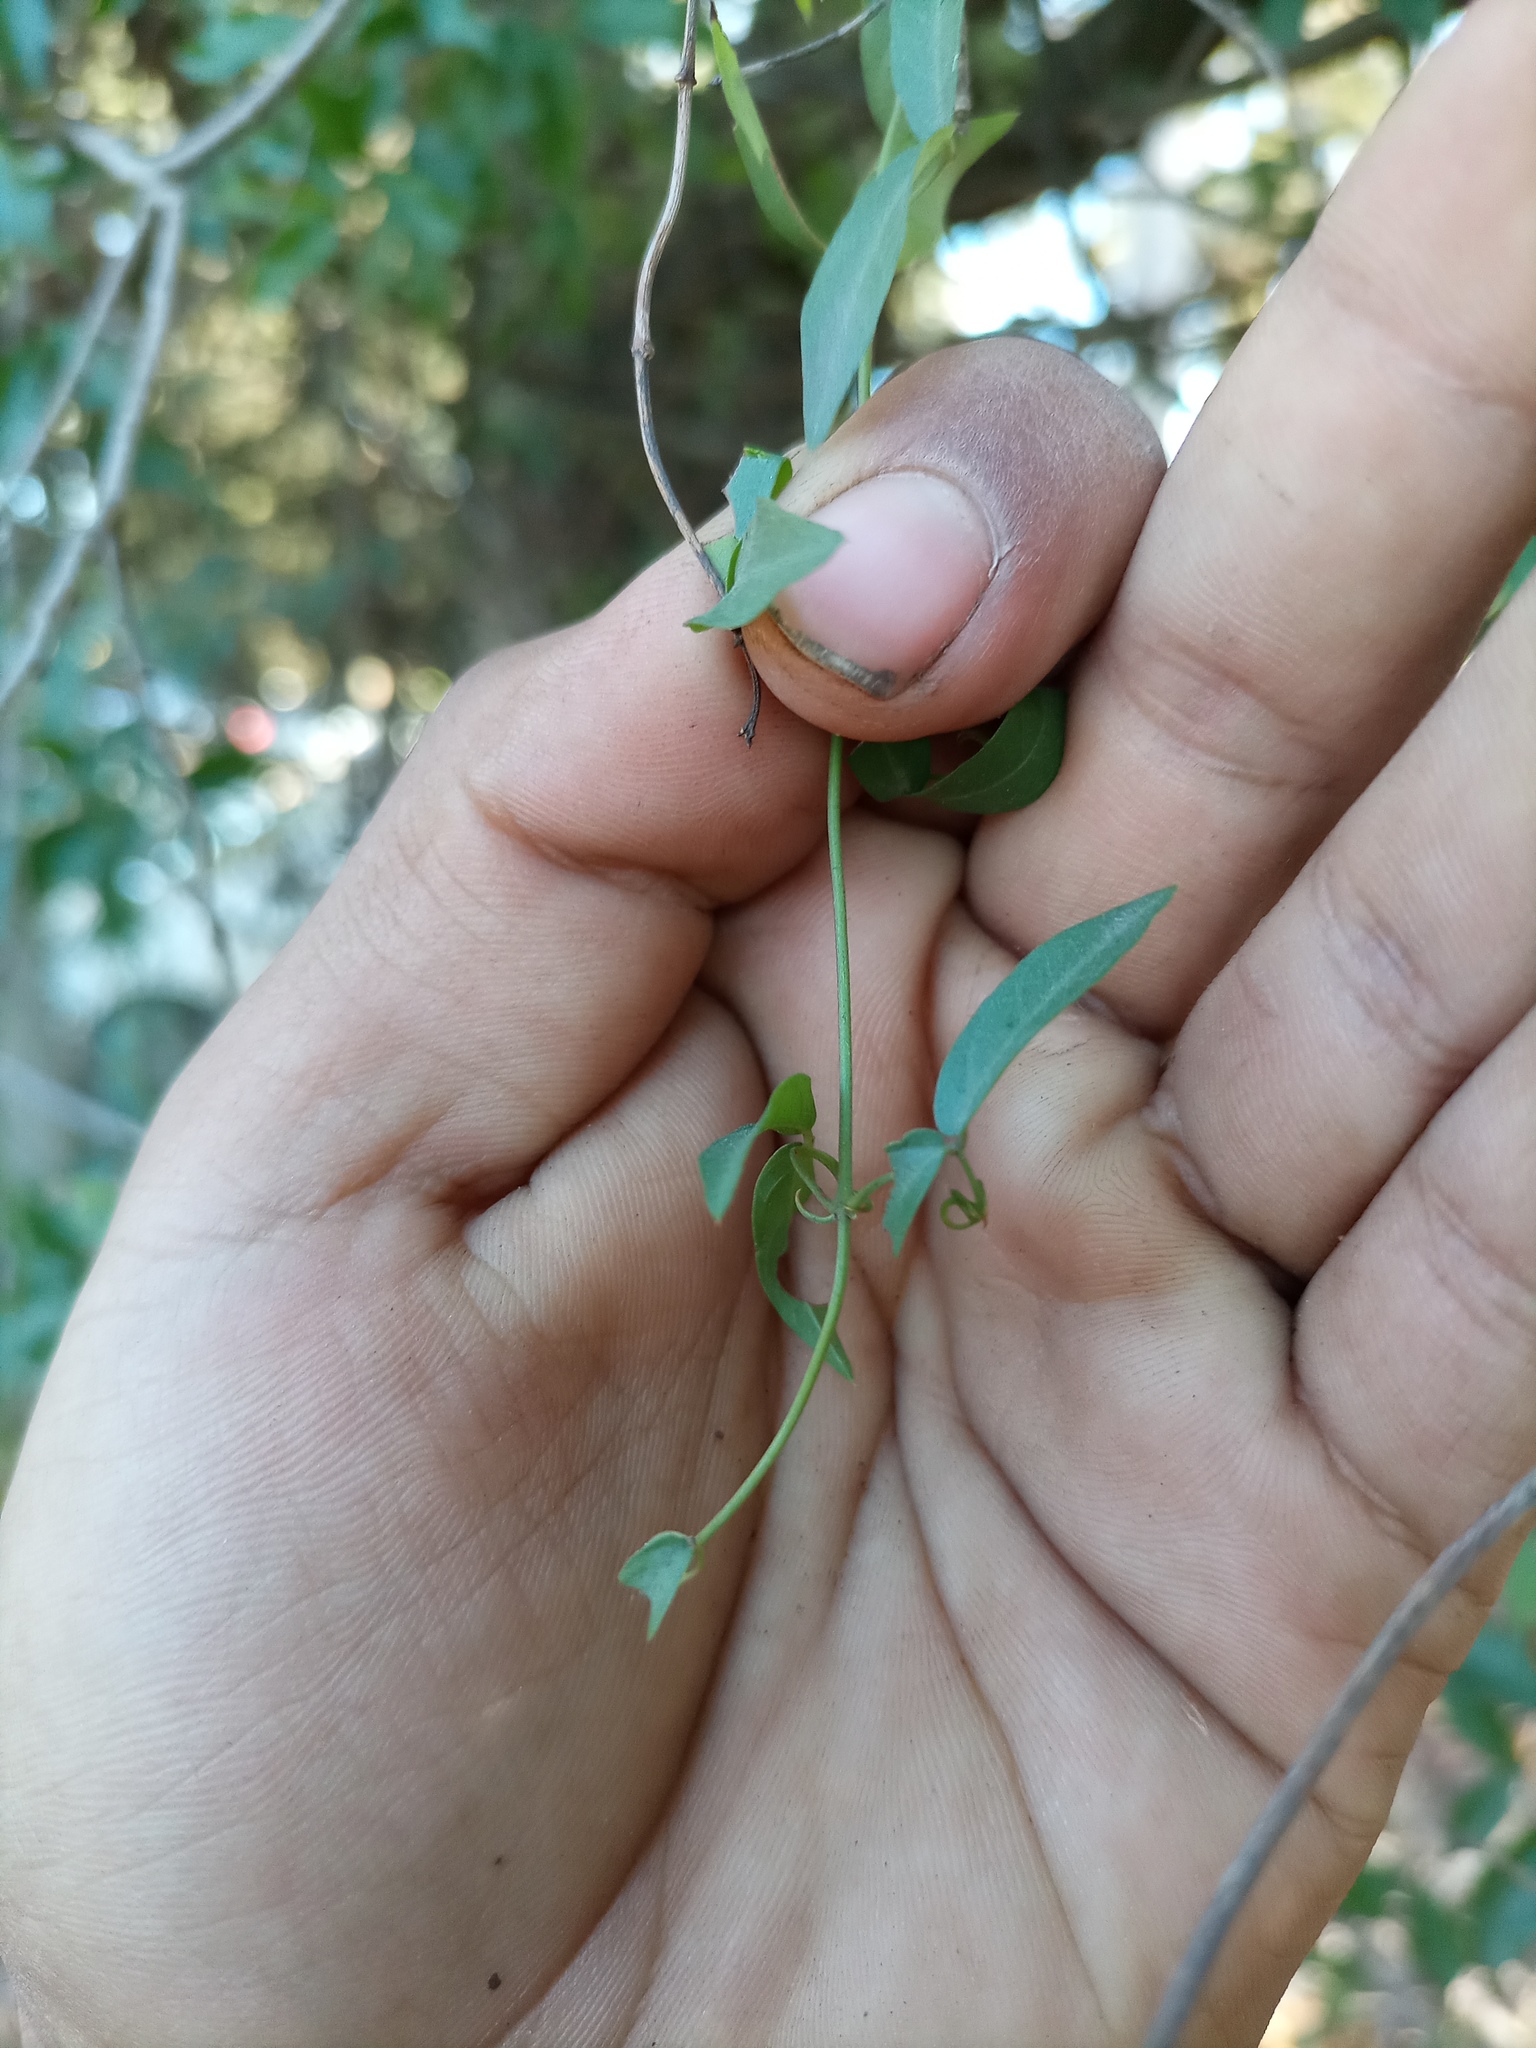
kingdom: Plantae
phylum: Tracheophyta
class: Magnoliopsida
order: Lamiales
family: Bignoniaceae
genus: Dolichandra
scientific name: Dolichandra unguis-cati
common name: Catclaw vine
